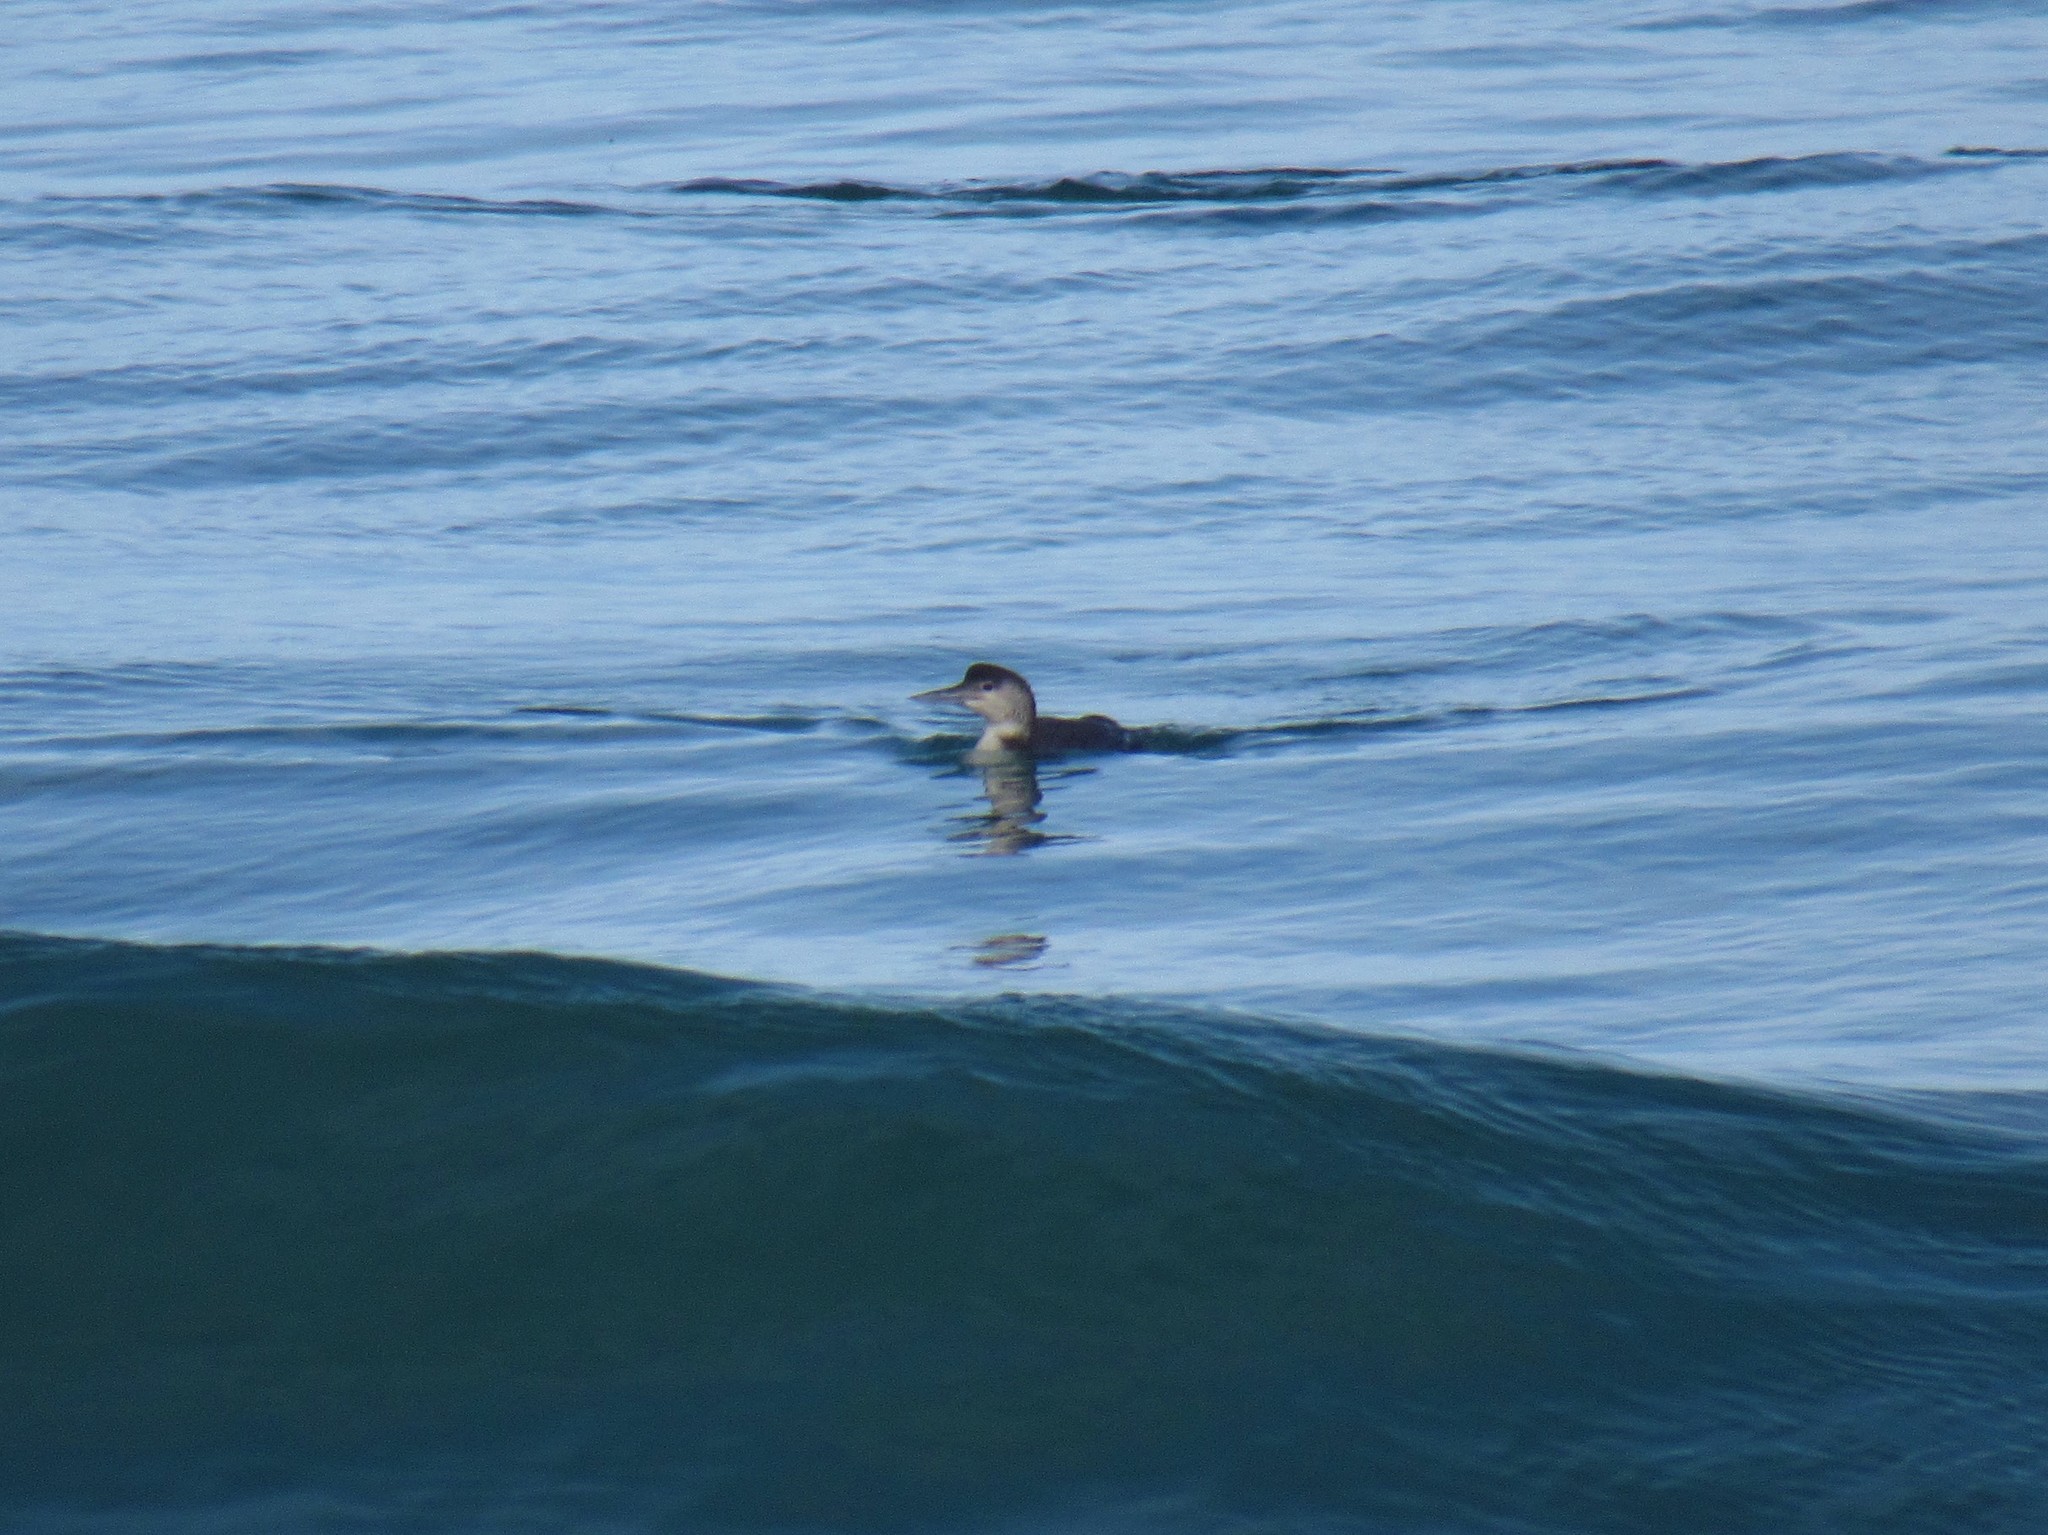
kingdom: Animalia
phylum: Chordata
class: Aves
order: Gaviiformes
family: Gaviidae
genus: Gavia
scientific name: Gavia immer
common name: Common loon
